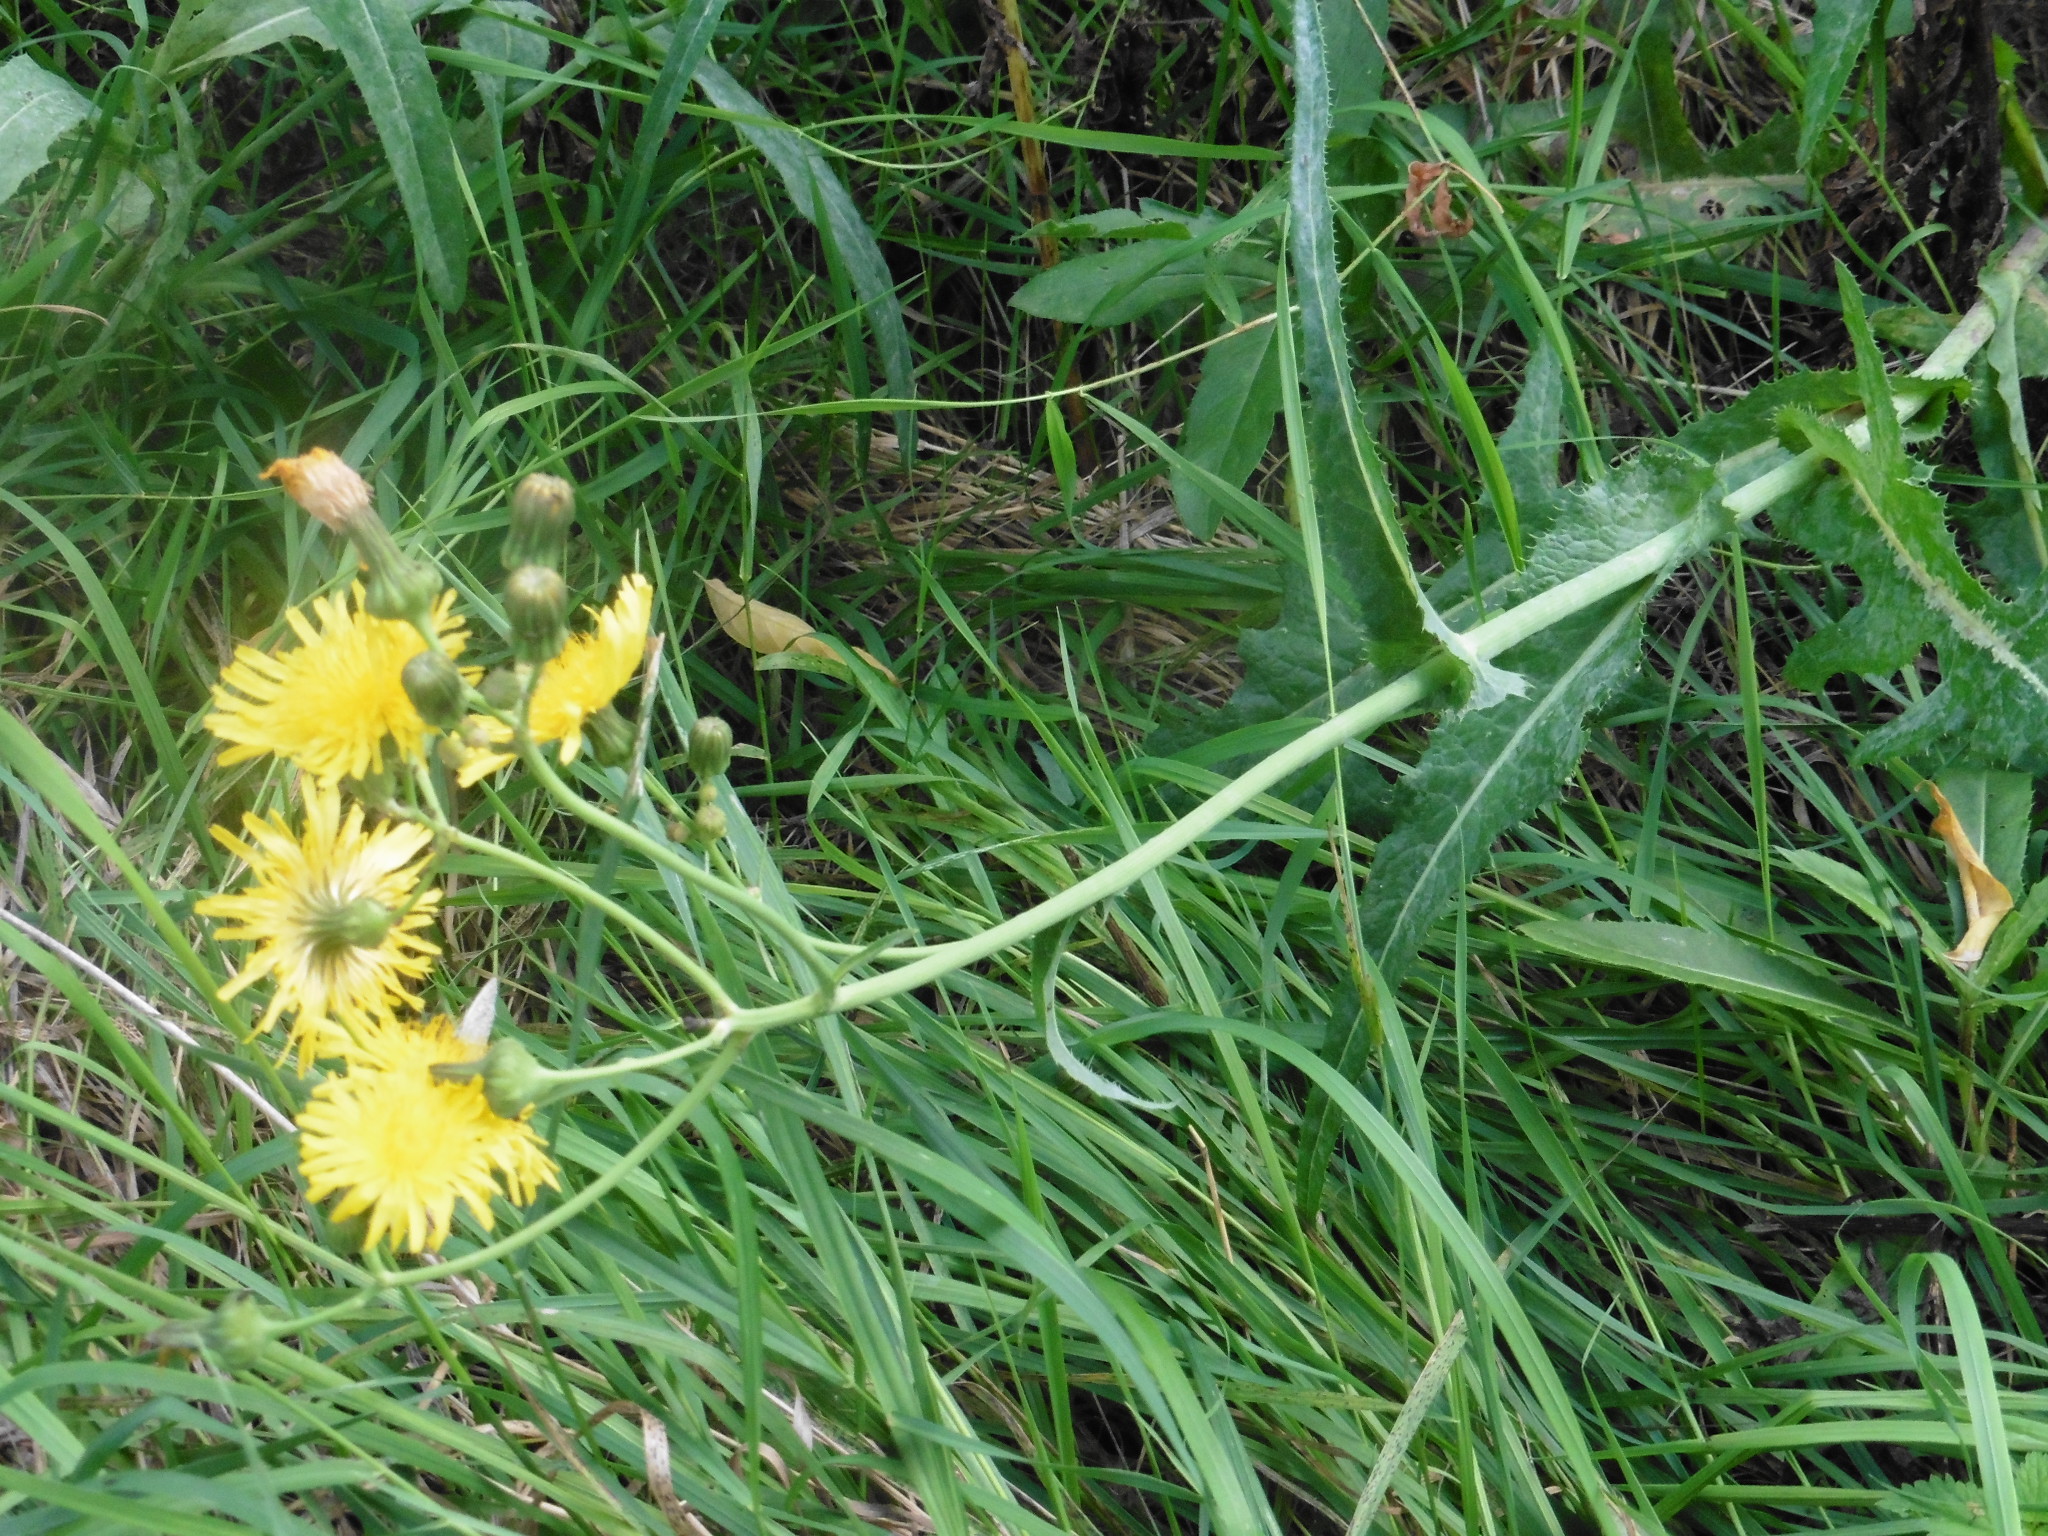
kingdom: Plantae
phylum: Tracheophyta
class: Magnoliopsida
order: Asterales
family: Asteraceae
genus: Sonchus
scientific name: Sonchus arvensis
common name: Perennial sow-thistle
